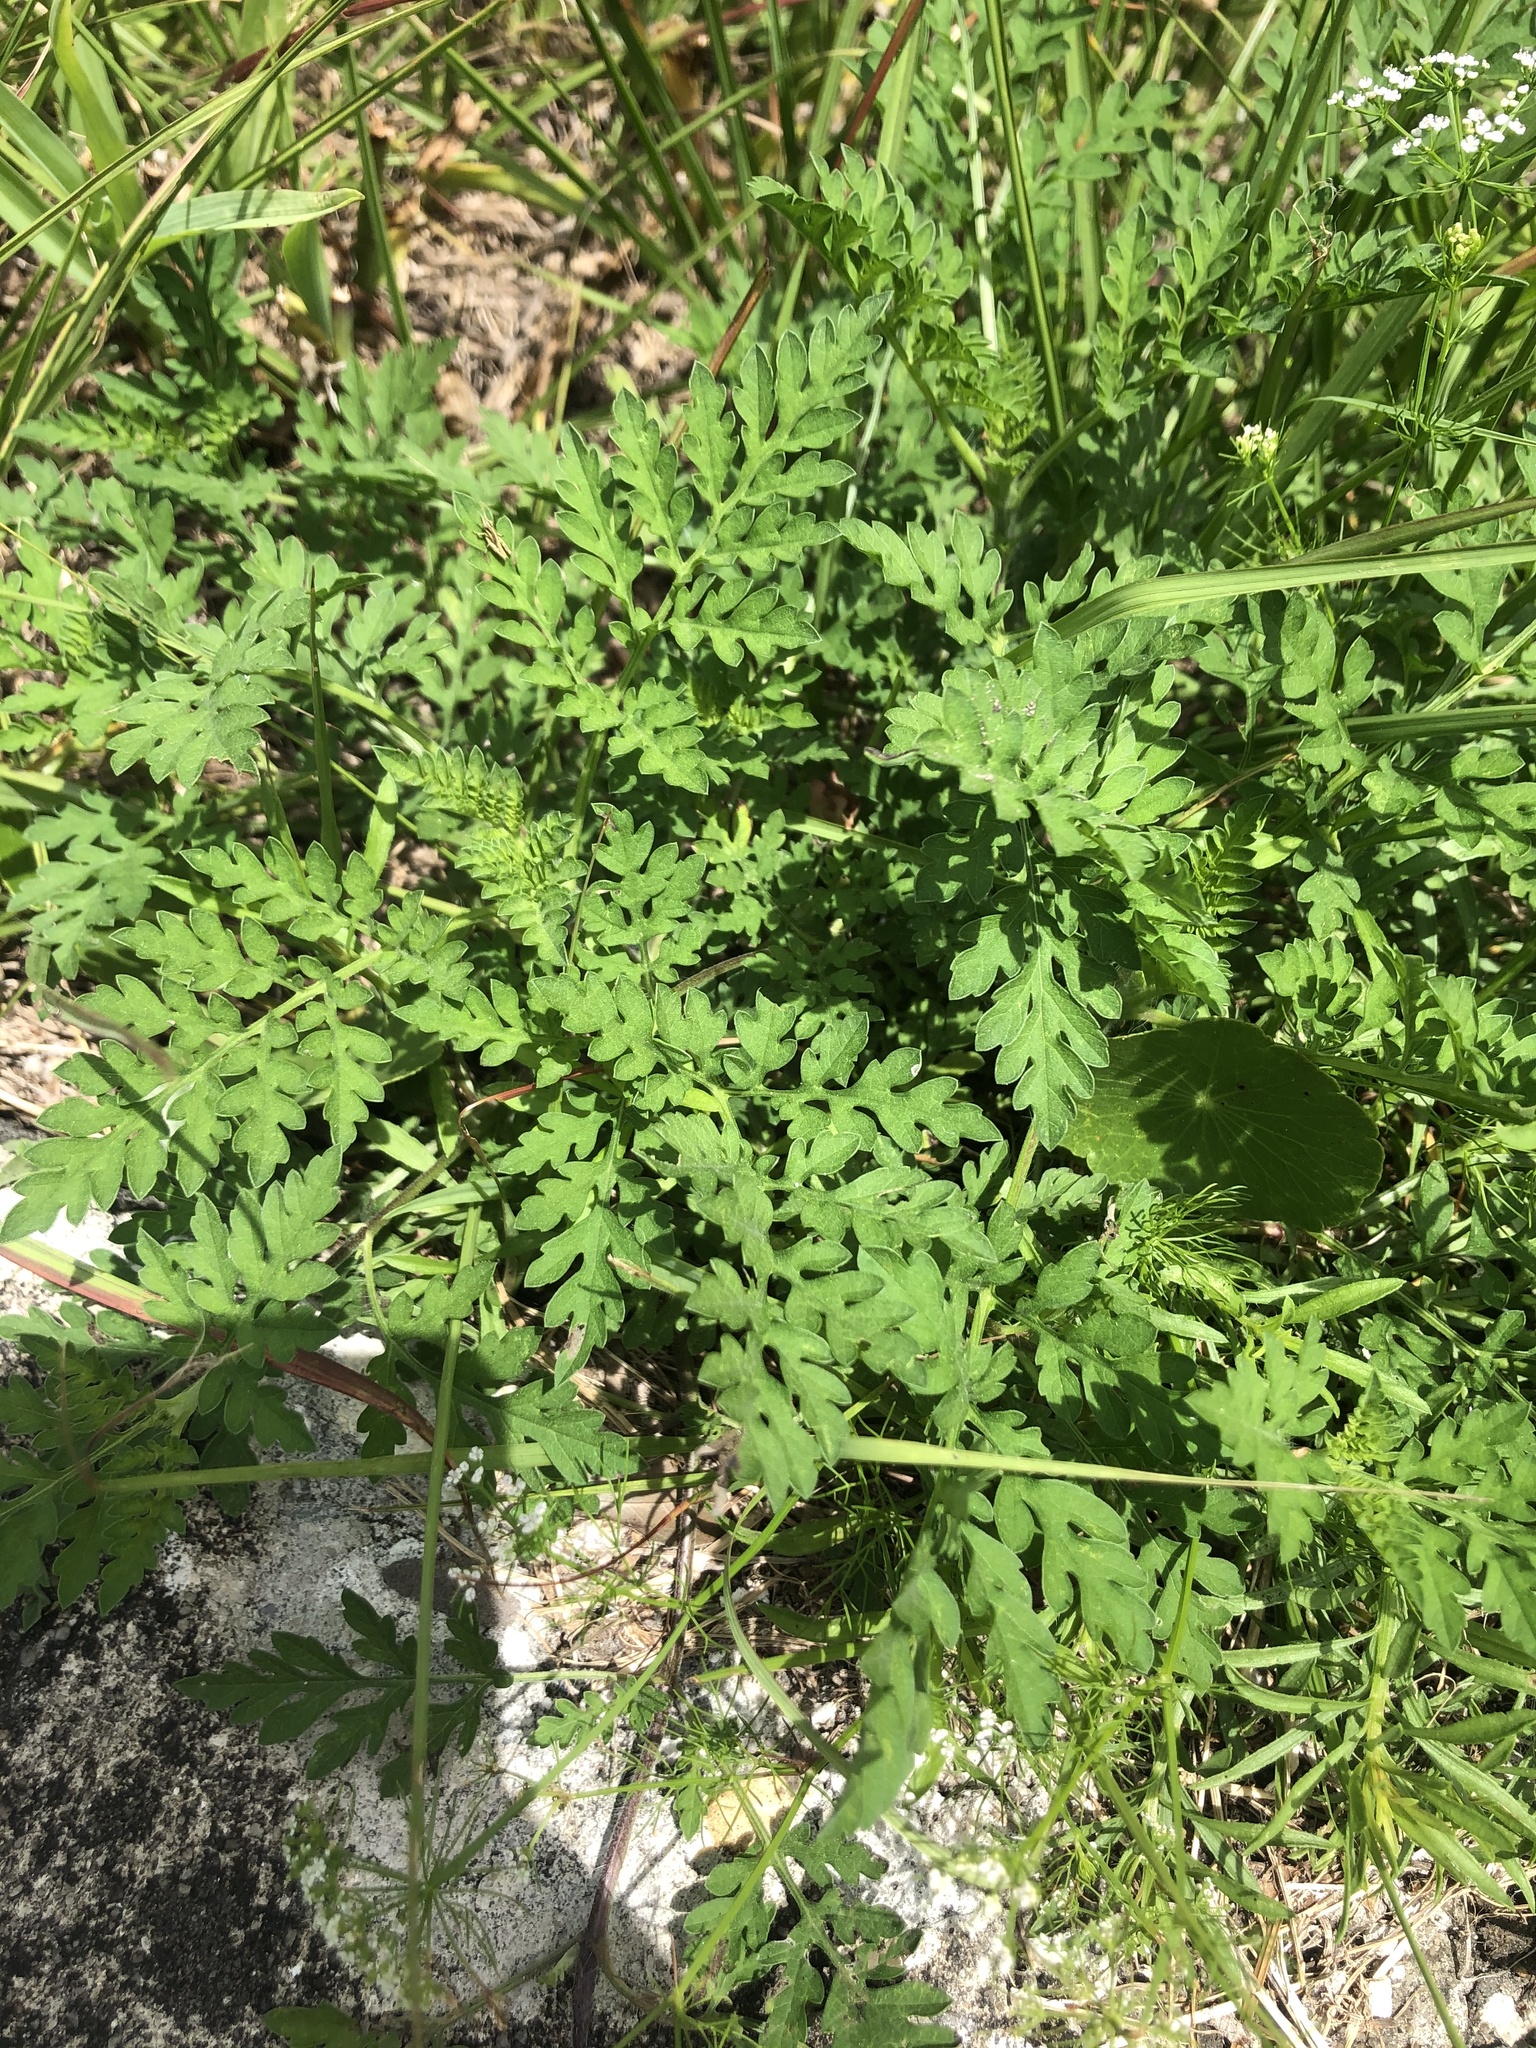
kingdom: Plantae
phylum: Tracheophyta
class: Magnoliopsida
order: Asterales
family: Asteraceae
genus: Ambrosia
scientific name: Ambrosia artemisiifolia
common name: Annual ragweed
